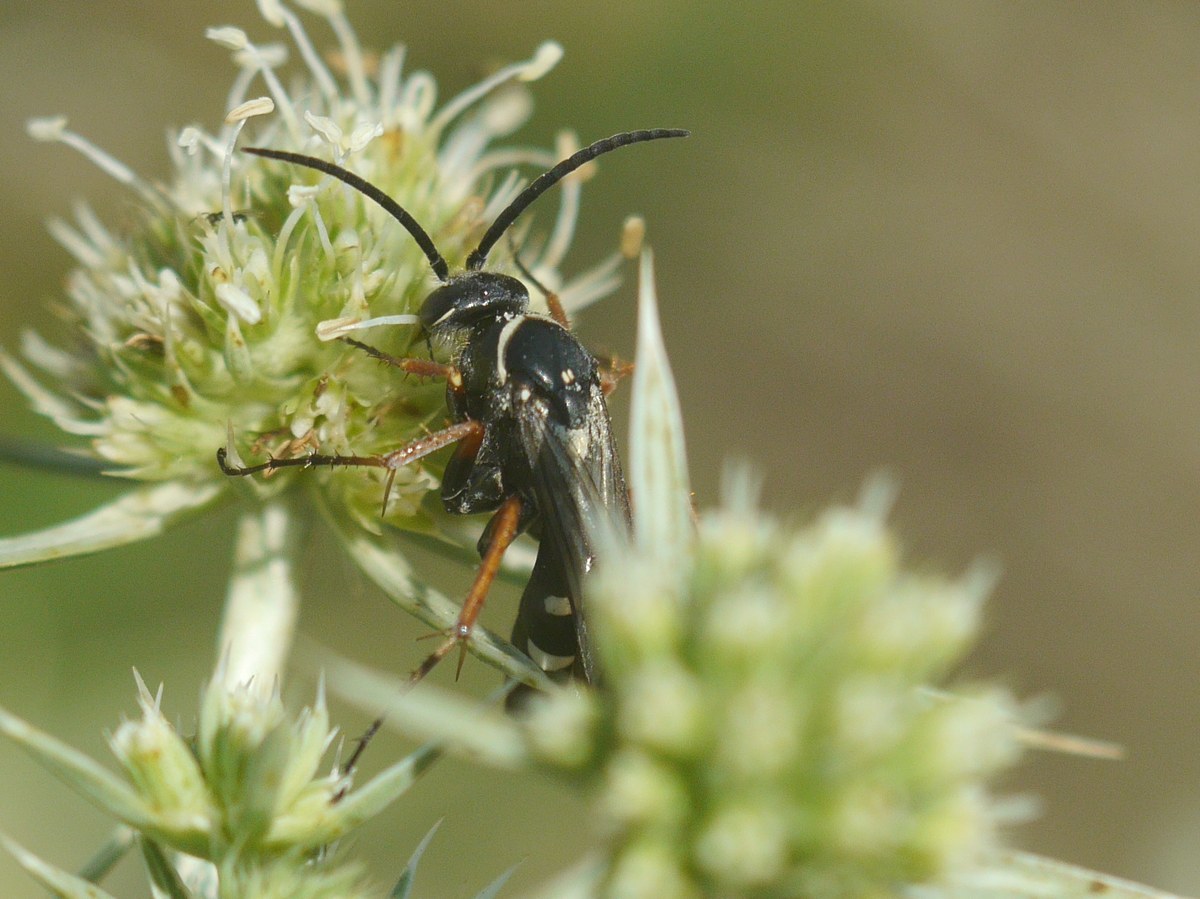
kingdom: Animalia
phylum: Arthropoda
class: Insecta
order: Hymenoptera
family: Pompilidae
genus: Episyron
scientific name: Episyron albonotatum
